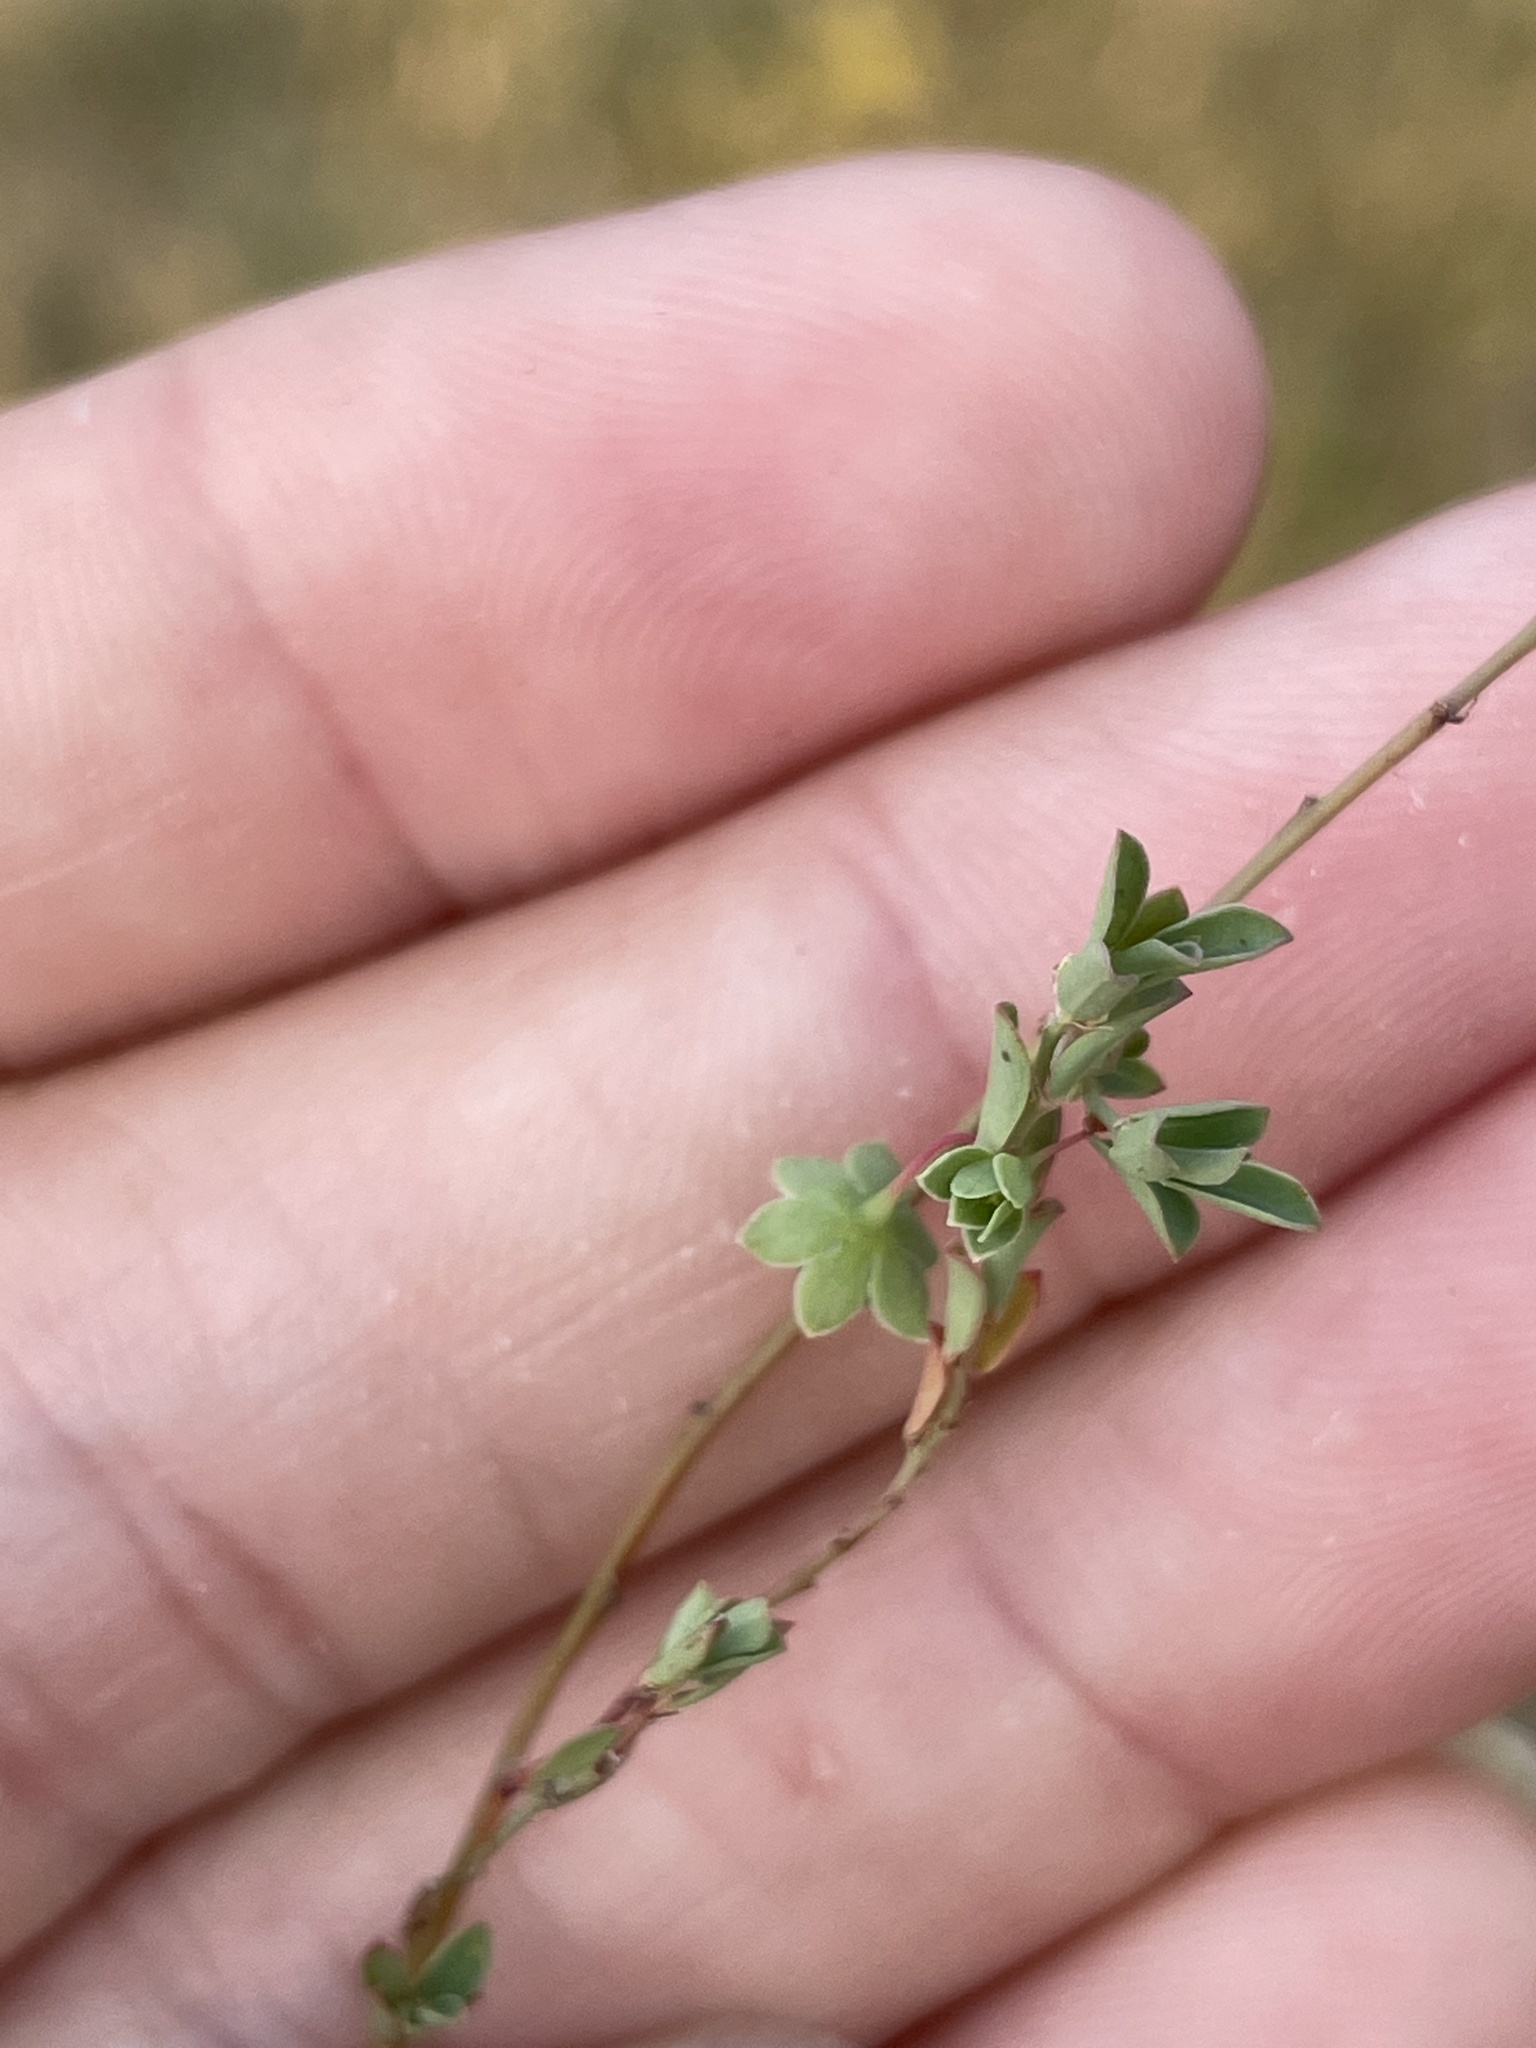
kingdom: Plantae
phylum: Tracheophyta
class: Magnoliopsida
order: Malpighiales
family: Phyllanthaceae
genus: Phyllanthus
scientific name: Phyllanthus polygonoides
